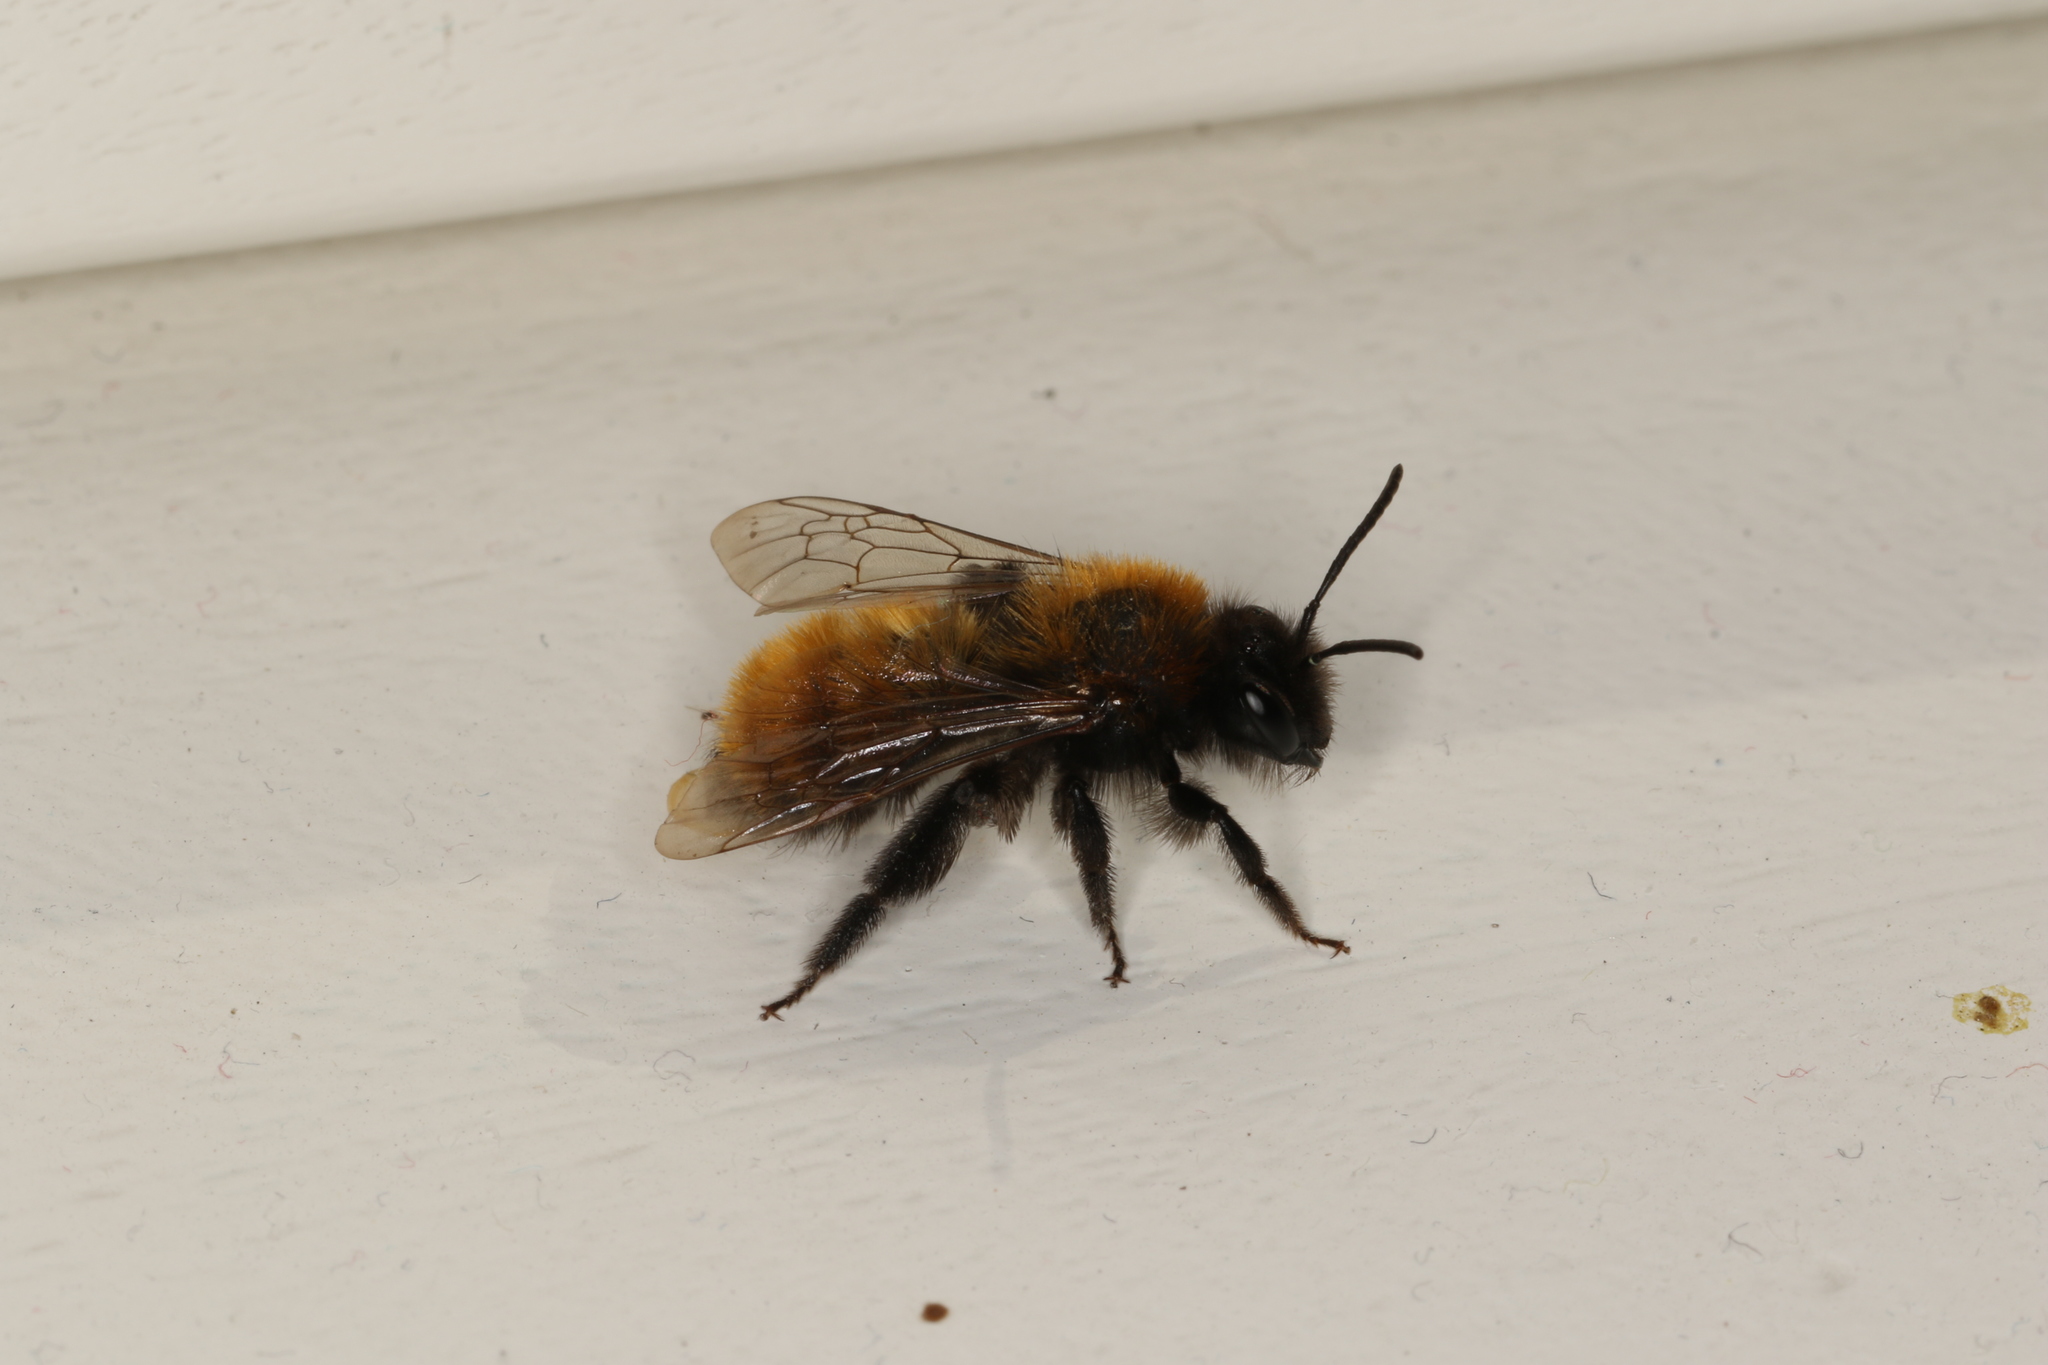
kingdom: Animalia
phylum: Arthropoda
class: Insecta
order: Hymenoptera
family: Andrenidae
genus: Andrena
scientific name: Andrena fulva
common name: Tawny mining bee
